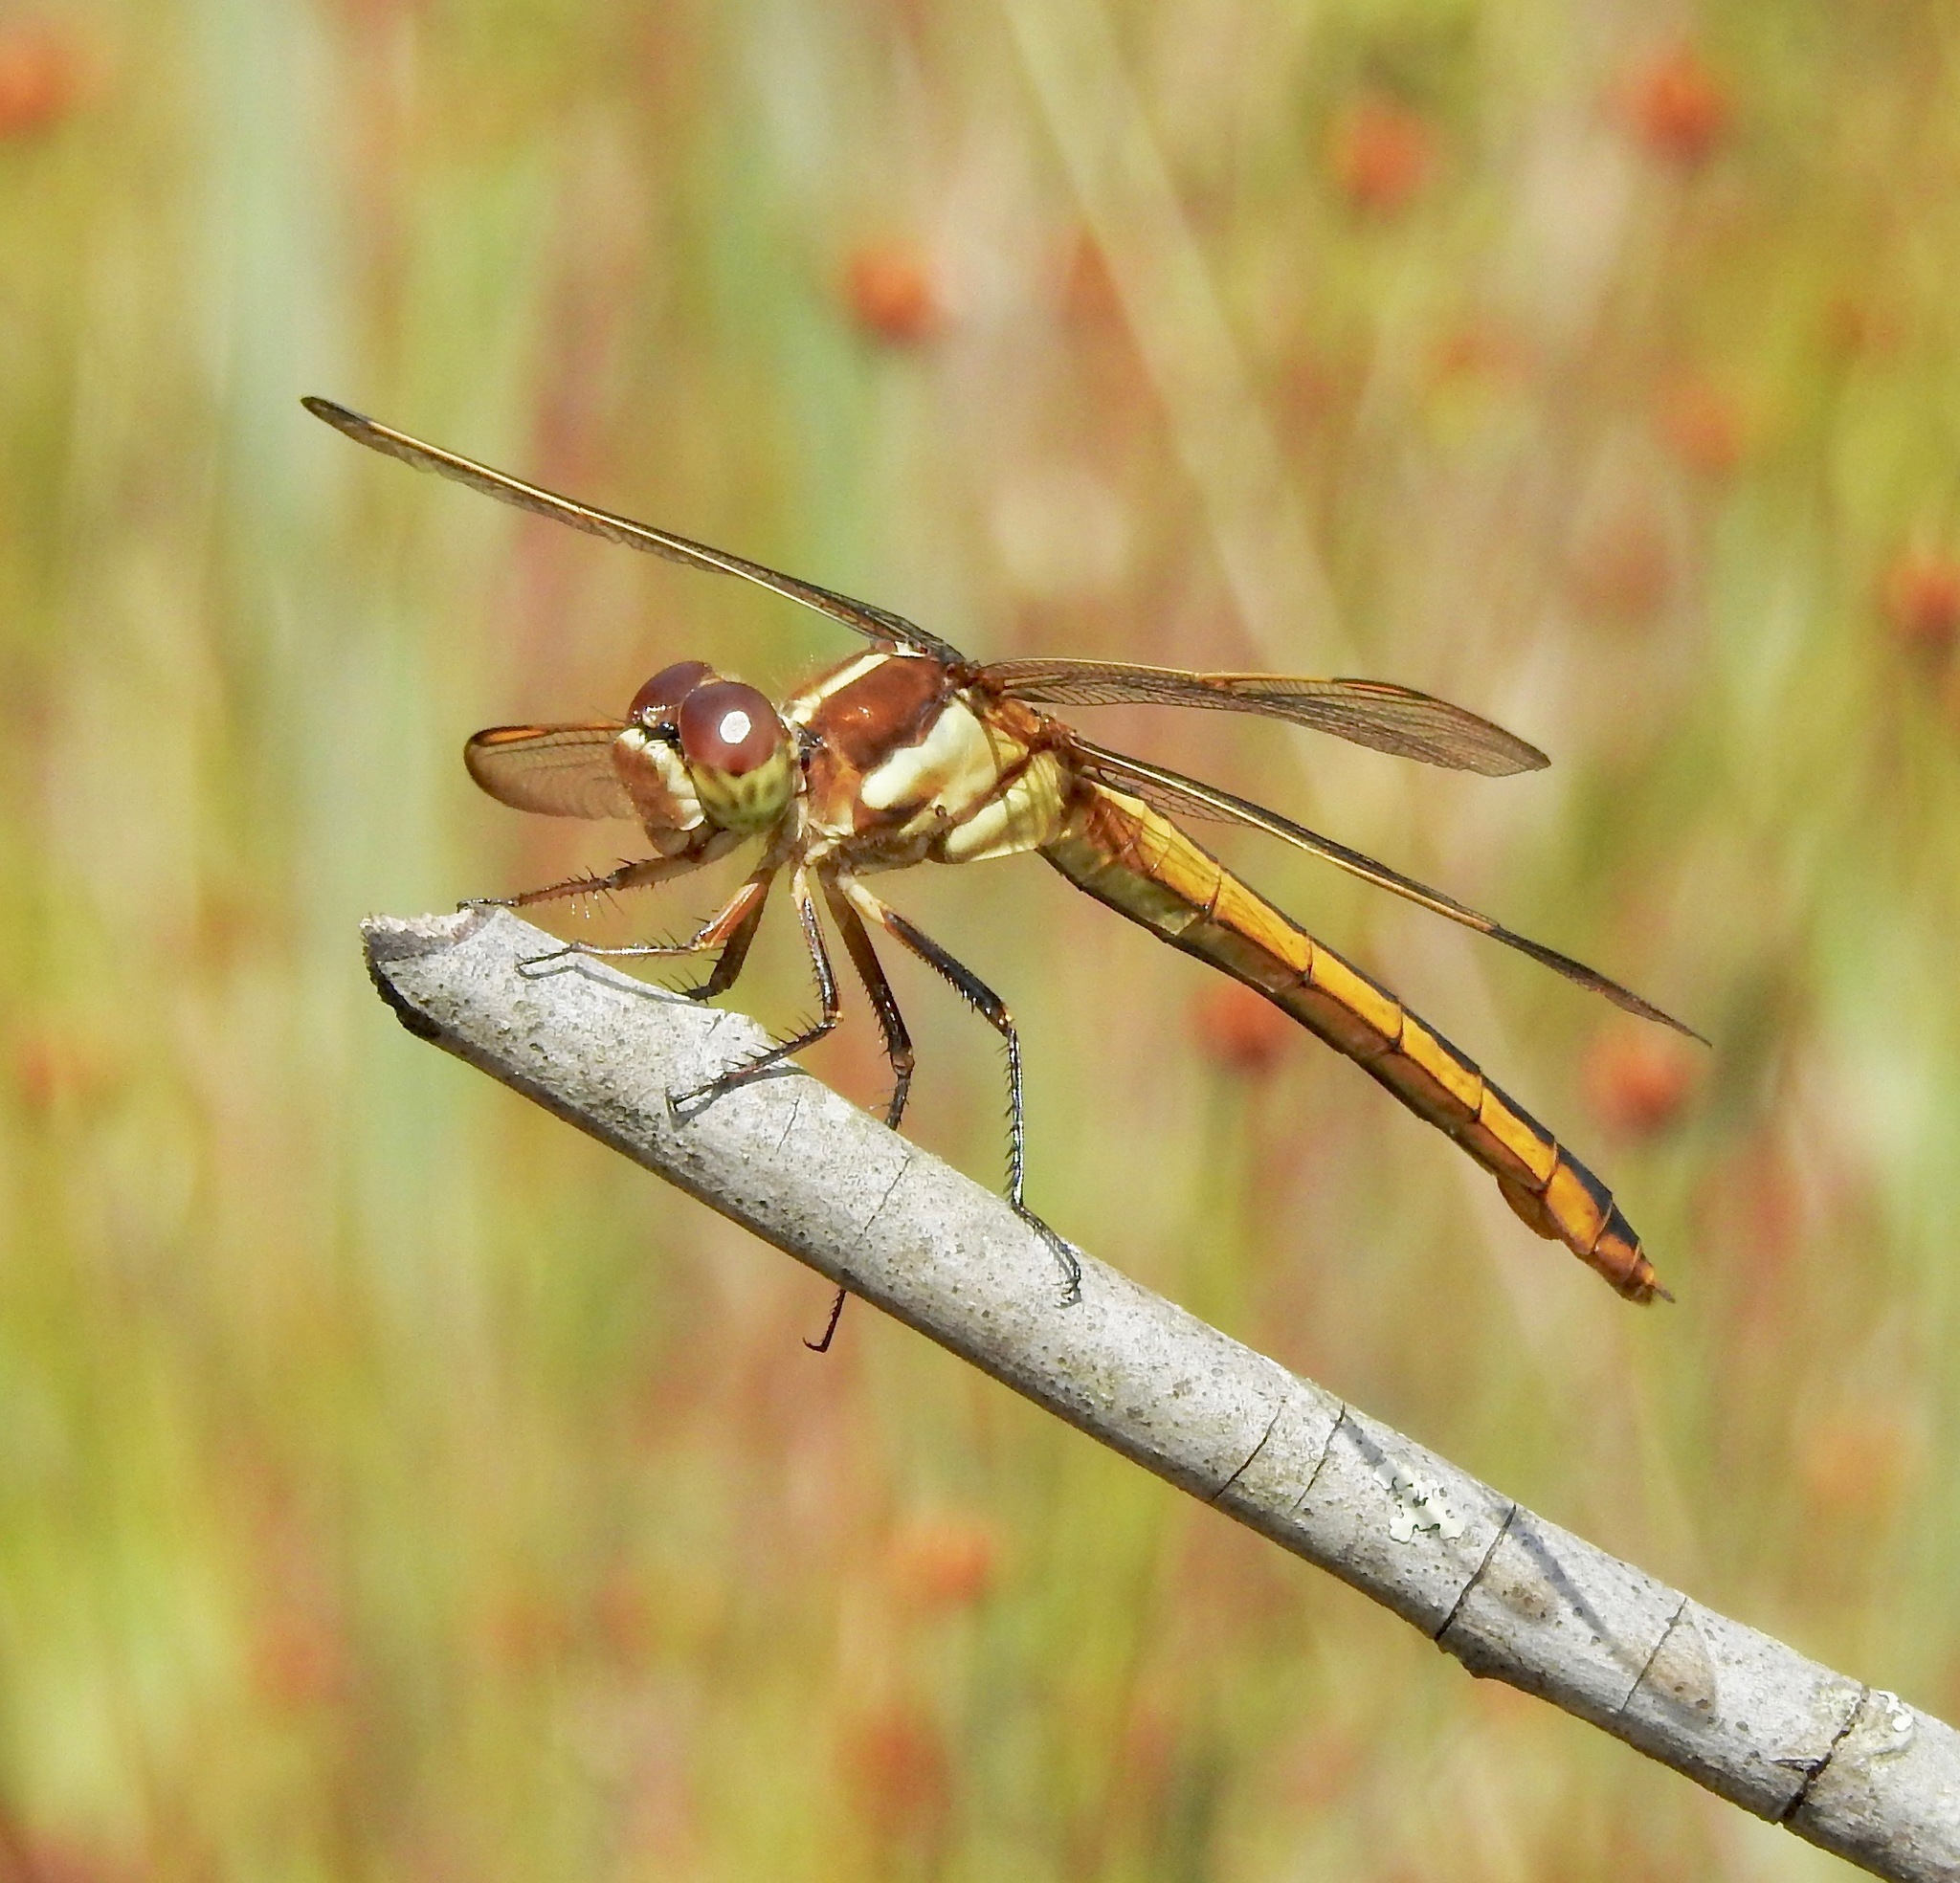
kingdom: Animalia
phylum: Arthropoda
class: Insecta
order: Odonata
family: Libellulidae
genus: Libellula
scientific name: Libellula auripennis
